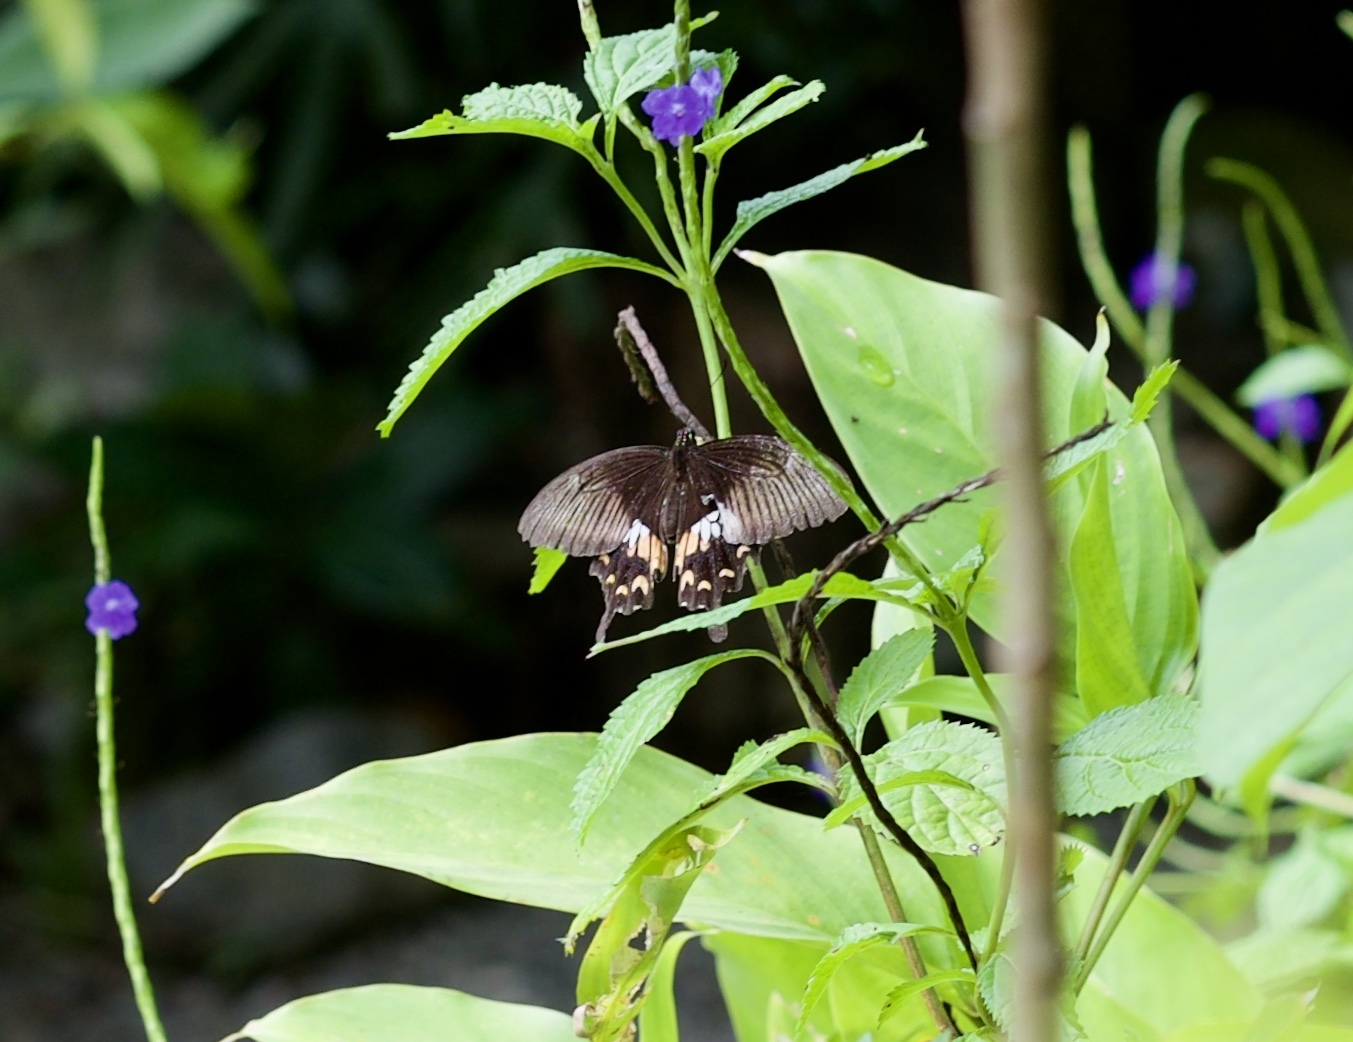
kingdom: Animalia
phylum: Arthropoda
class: Insecta
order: Lepidoptera
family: Papilionidae
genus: Papilio
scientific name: Papilio polytes
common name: Common mormon
